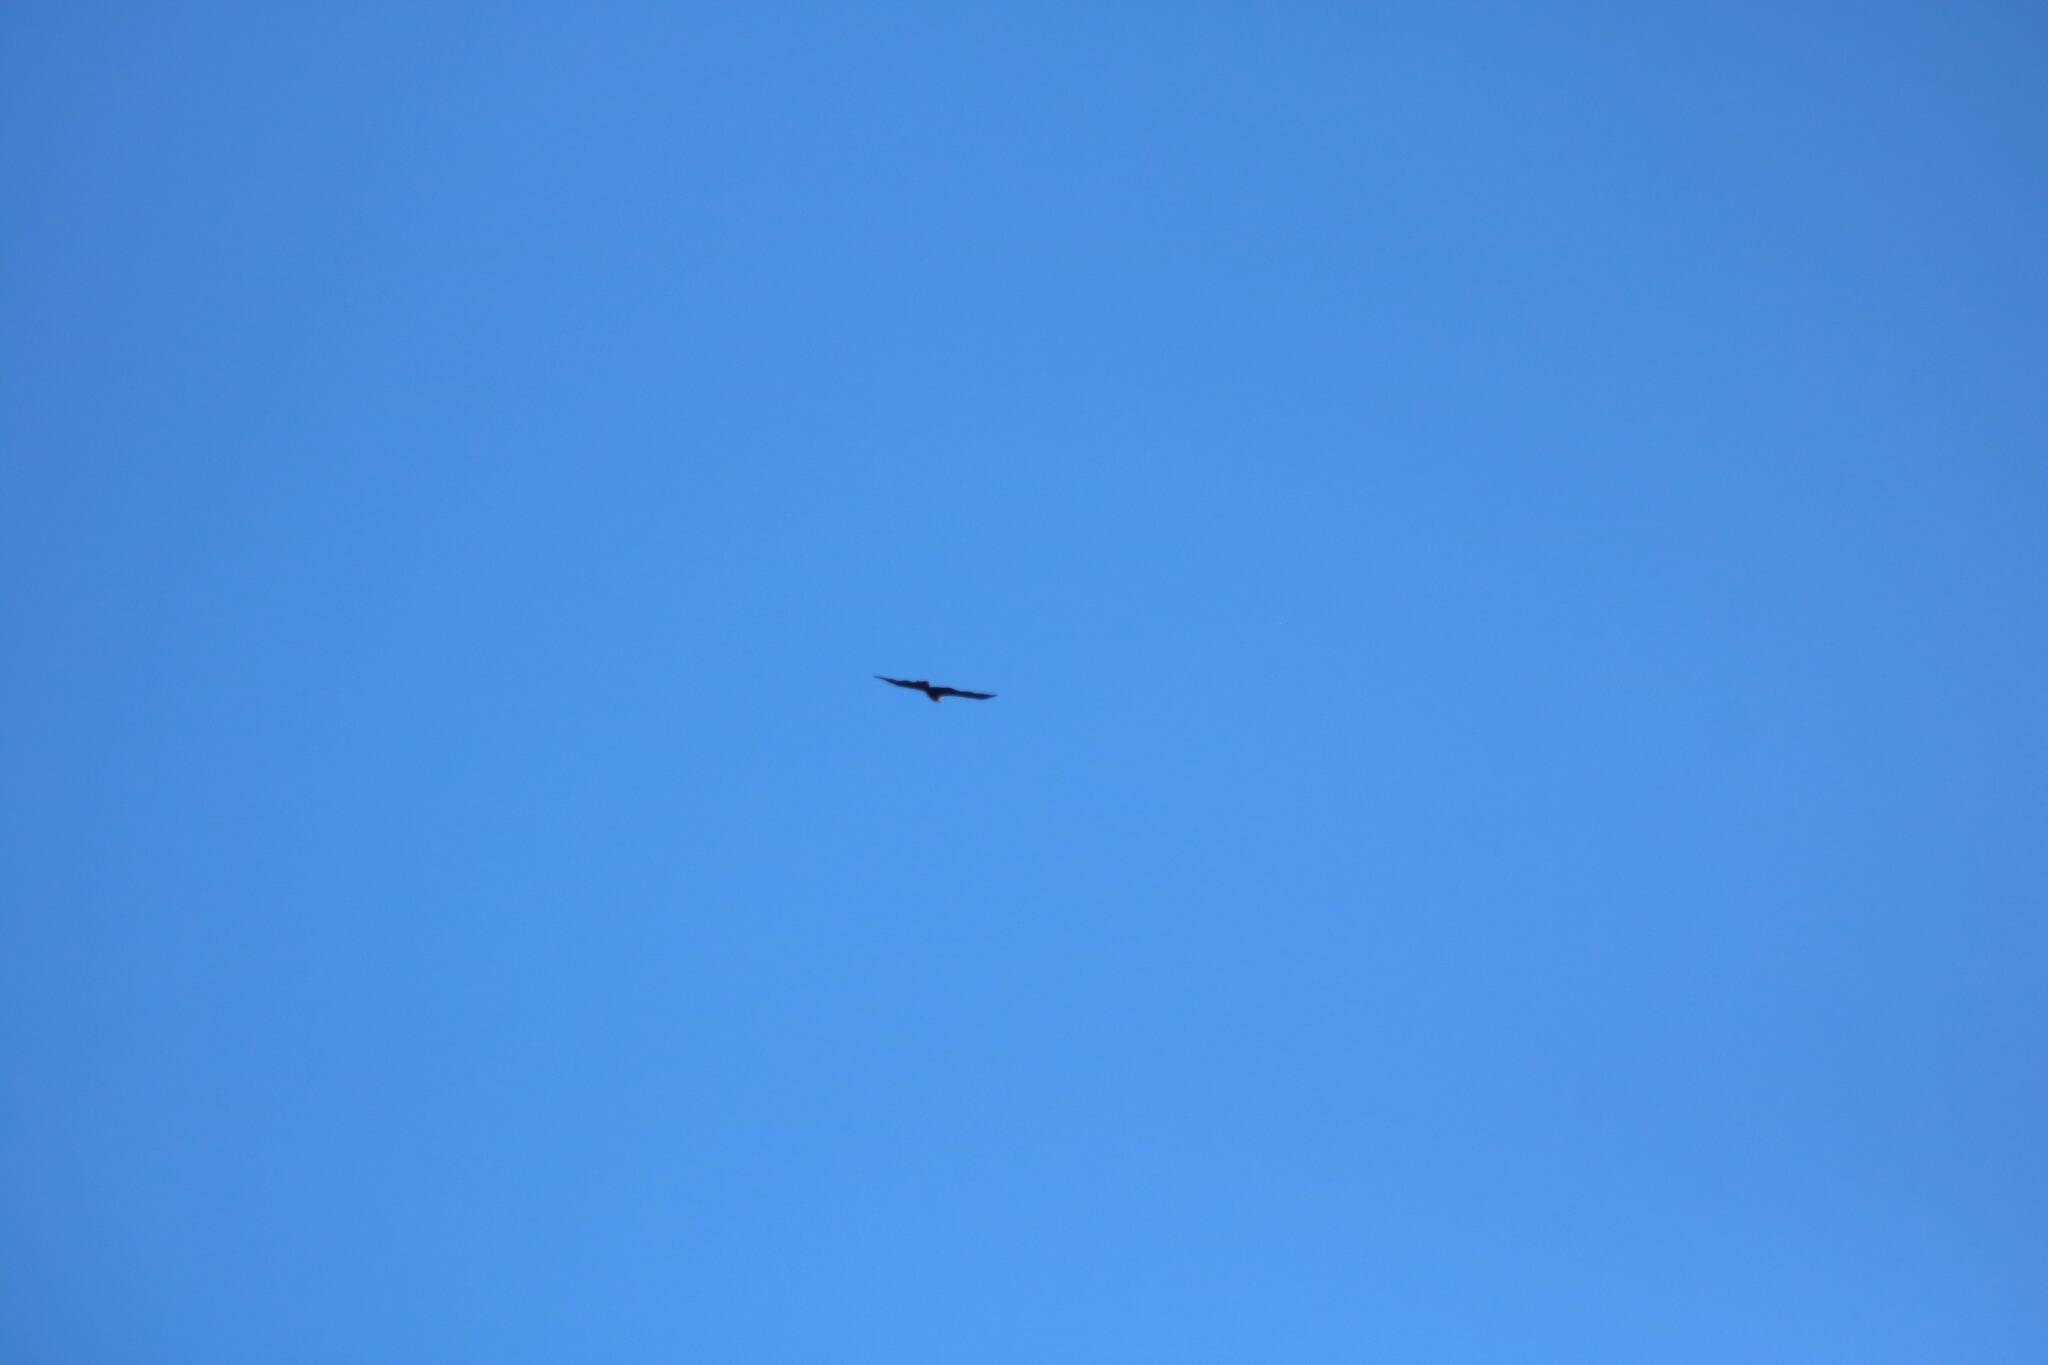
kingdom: Animalia
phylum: Chordata
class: Aves
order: Accipitriformes
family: Accipitridae
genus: Hieraaetus
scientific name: Hieraaetus pennatus
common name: Booted eagle
